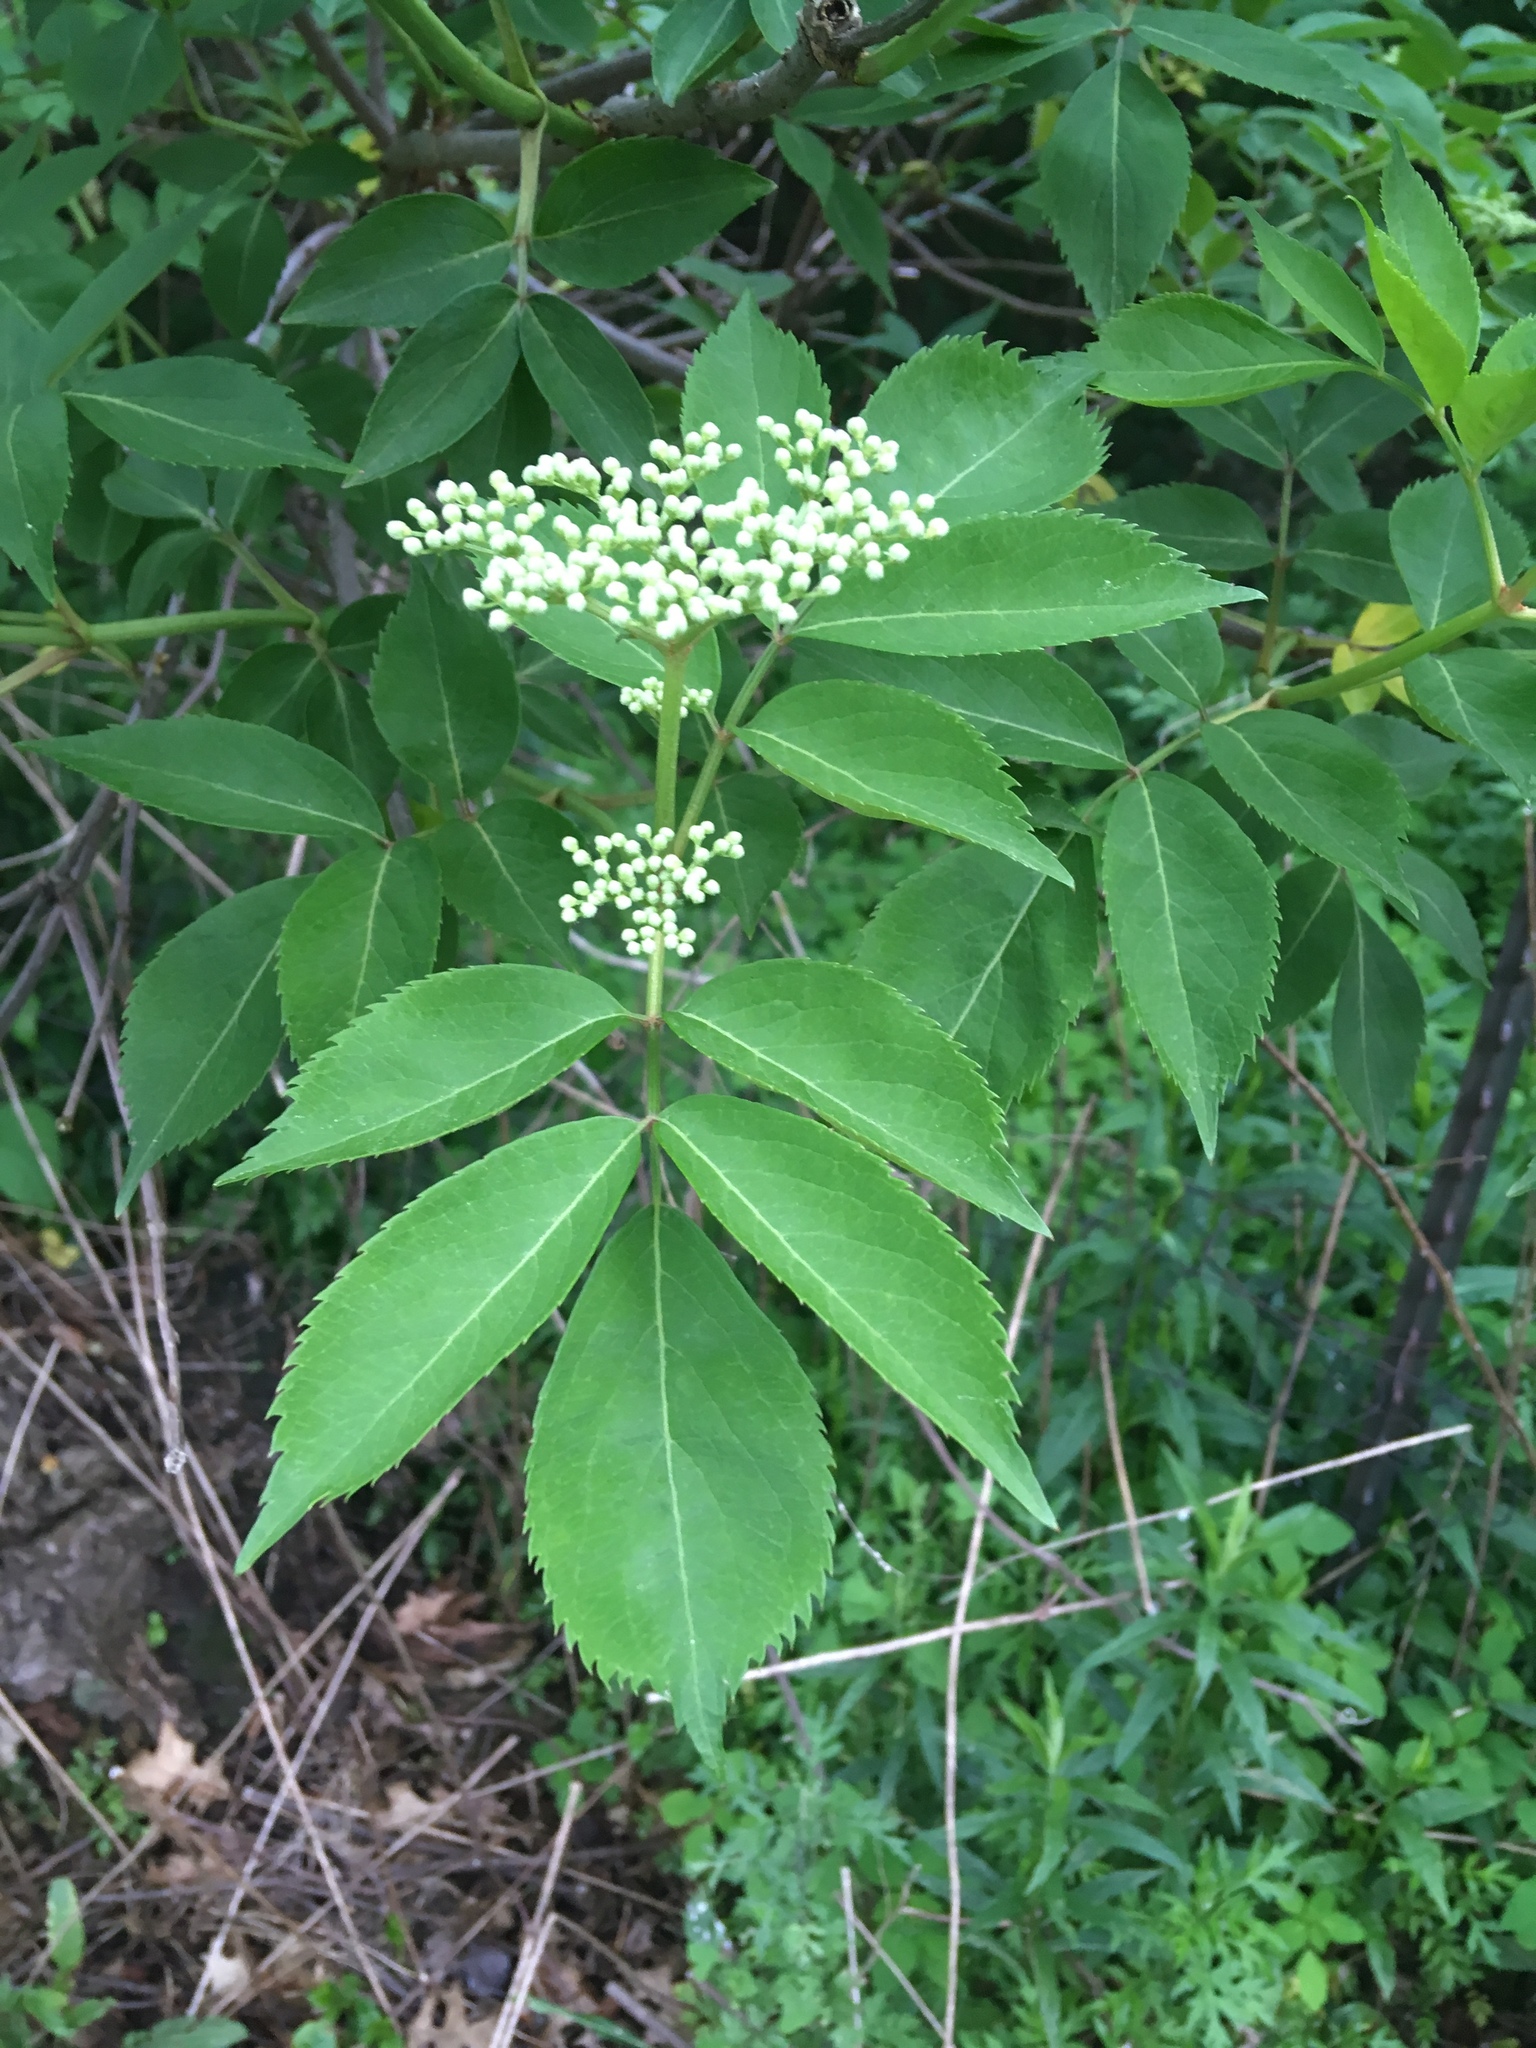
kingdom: Plantae
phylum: Tracheophyta
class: Magnoliopsida
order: Dipsacales
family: Viburnaceae
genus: Sambucus
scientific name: Sambucus canadensis
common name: American elder
